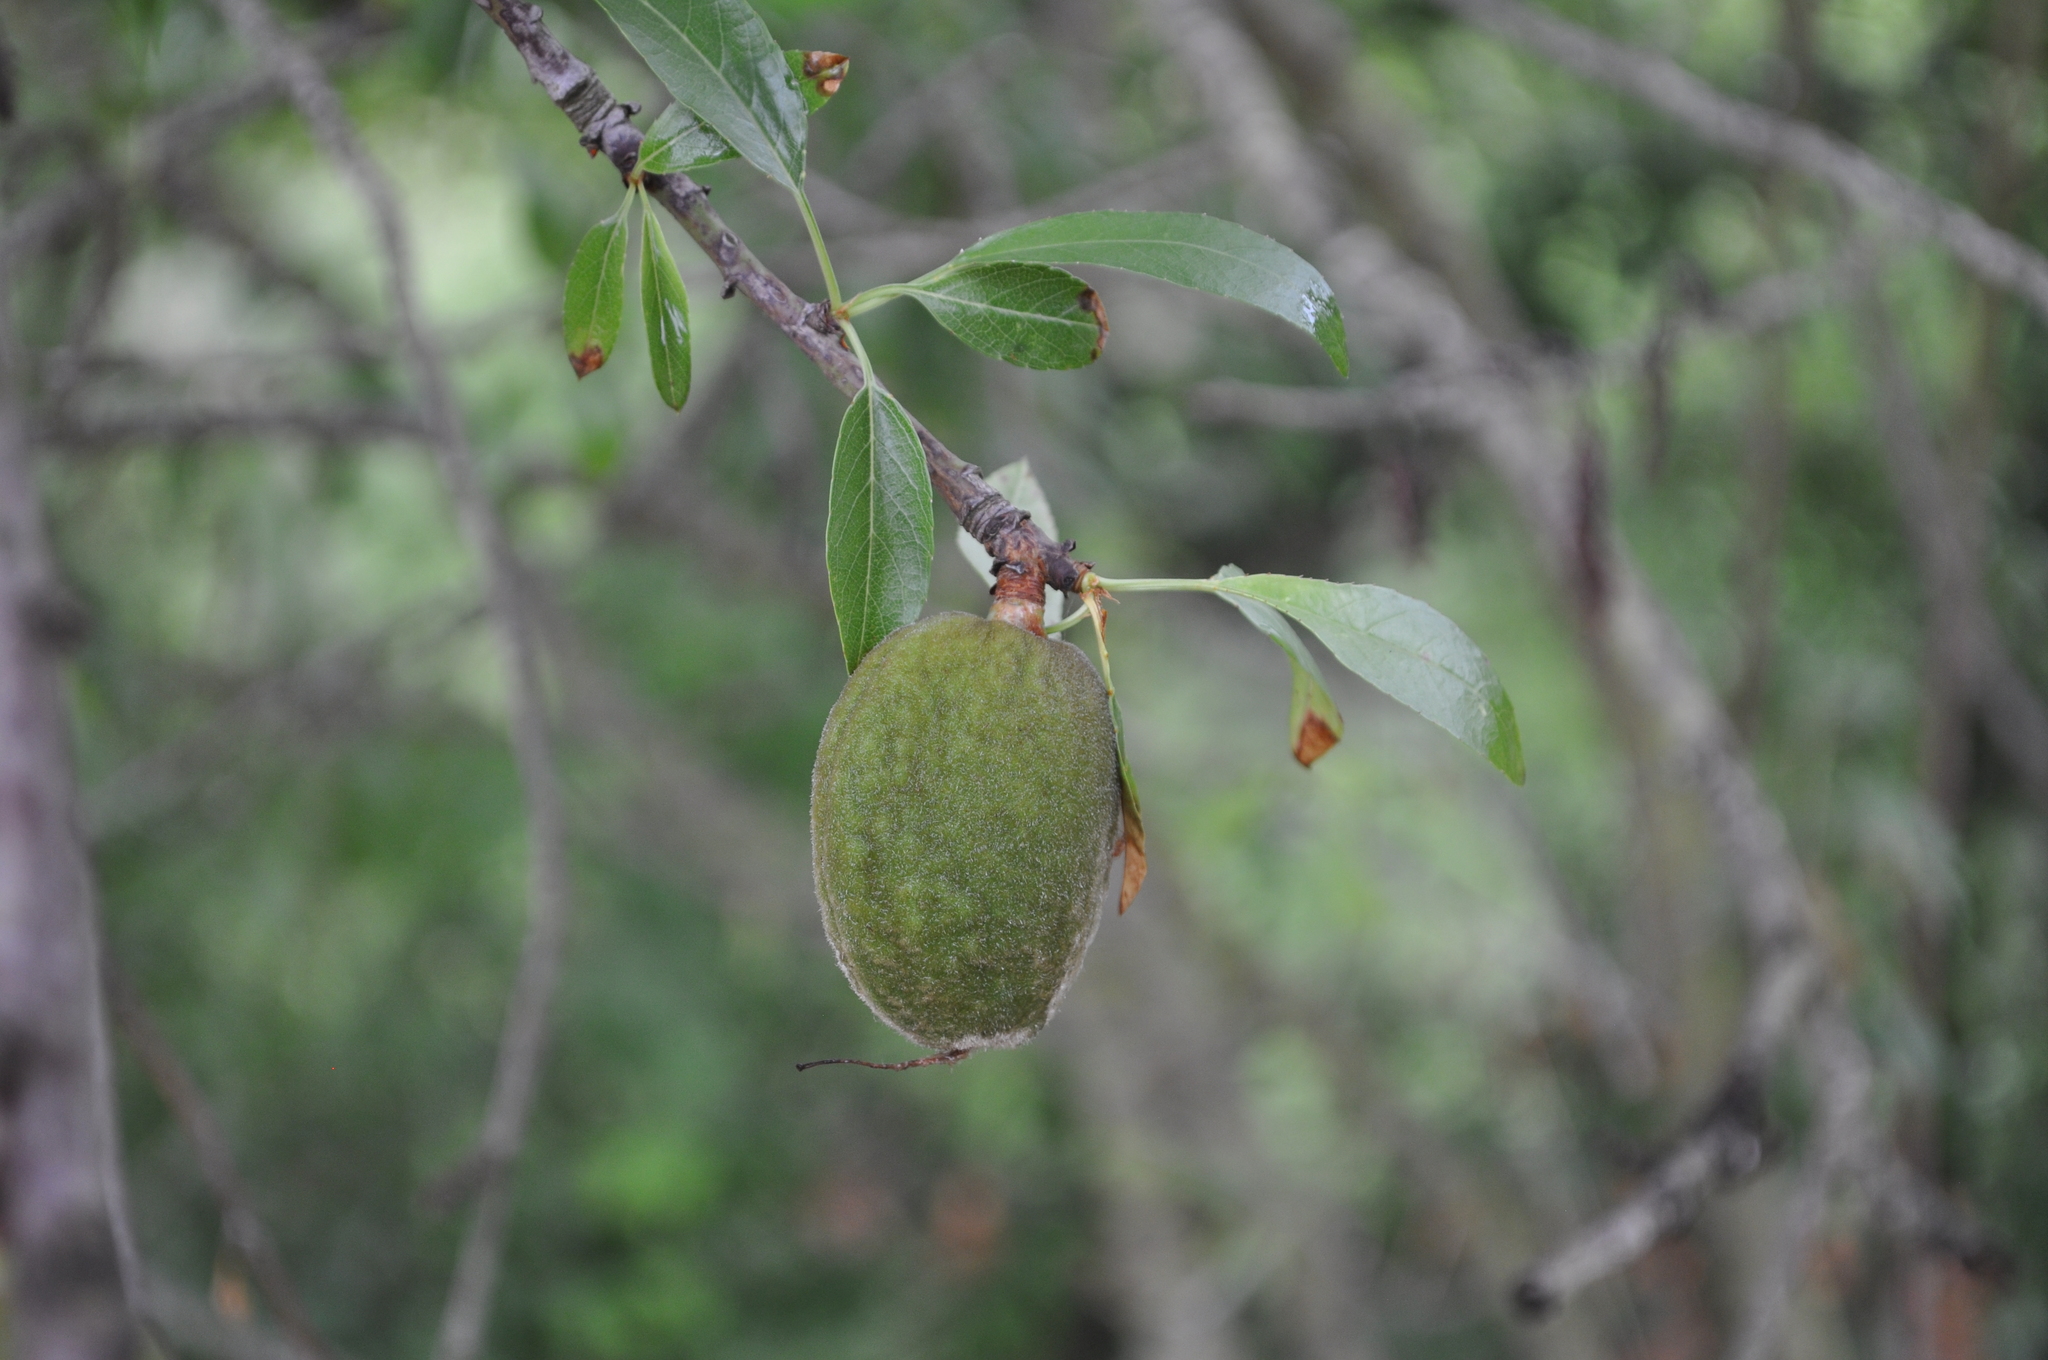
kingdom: Plantae
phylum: Tracheophyta
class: Magnoliopsida
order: Rosales
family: Rosaceae
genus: Prunus
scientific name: Prunus amygdalus
